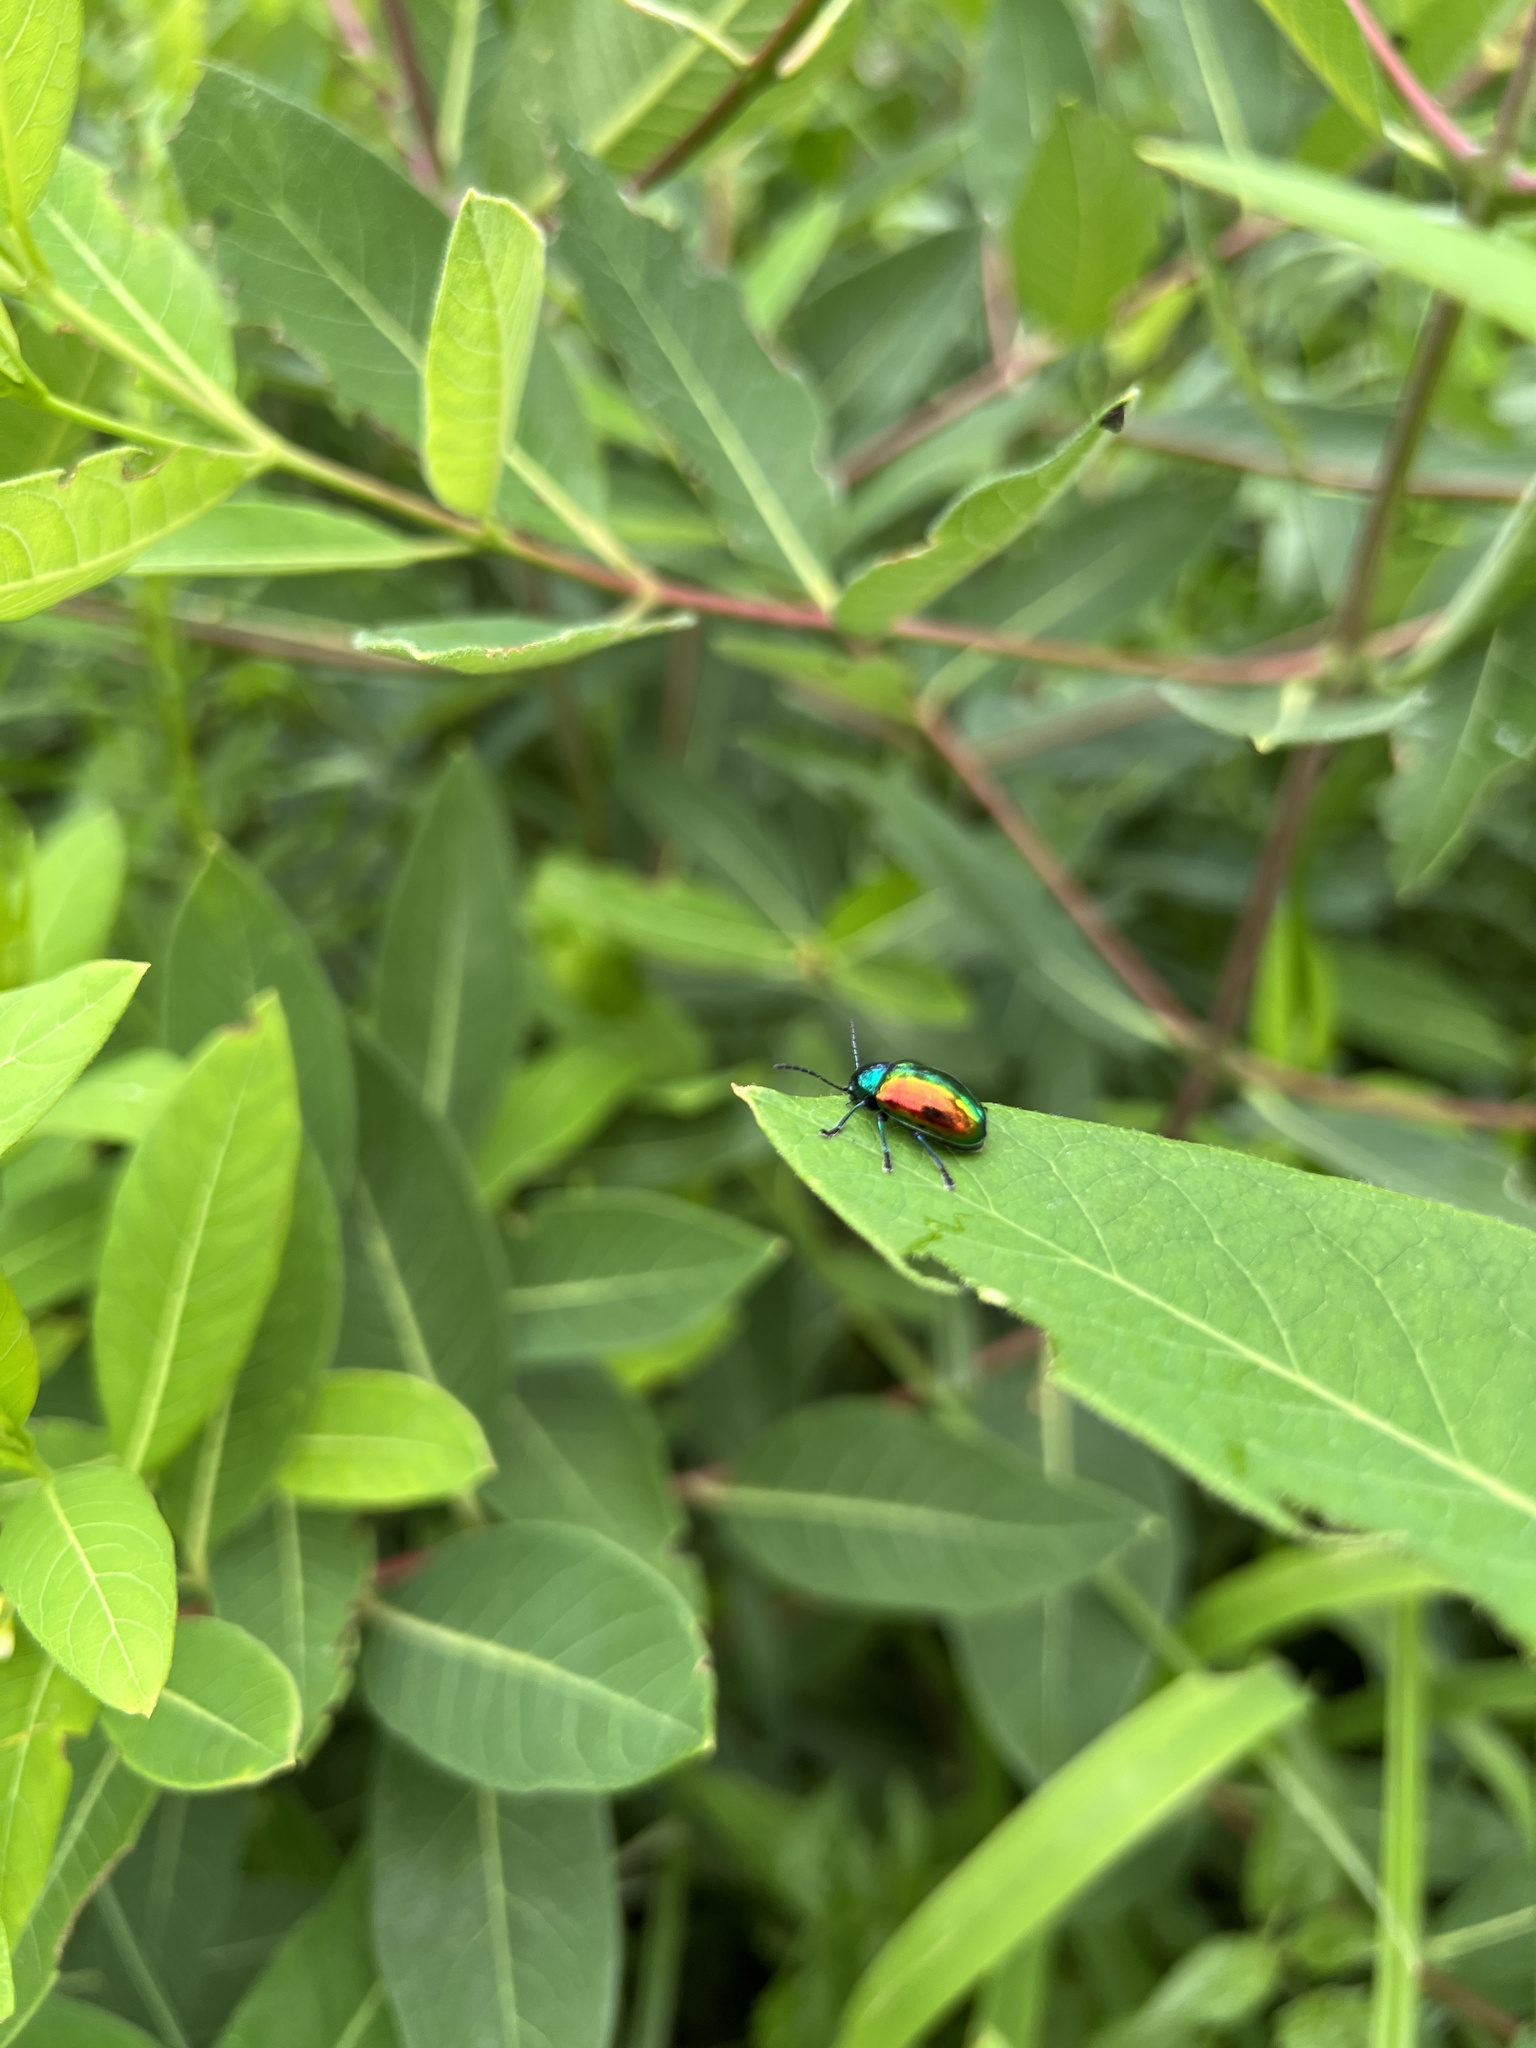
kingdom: Animalia
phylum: Arthropoda
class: Insecta
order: Coleoptera
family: Chrysomelidae
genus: Chrysochus
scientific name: Chrysochus auratus
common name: Dogbane leaf beetle
